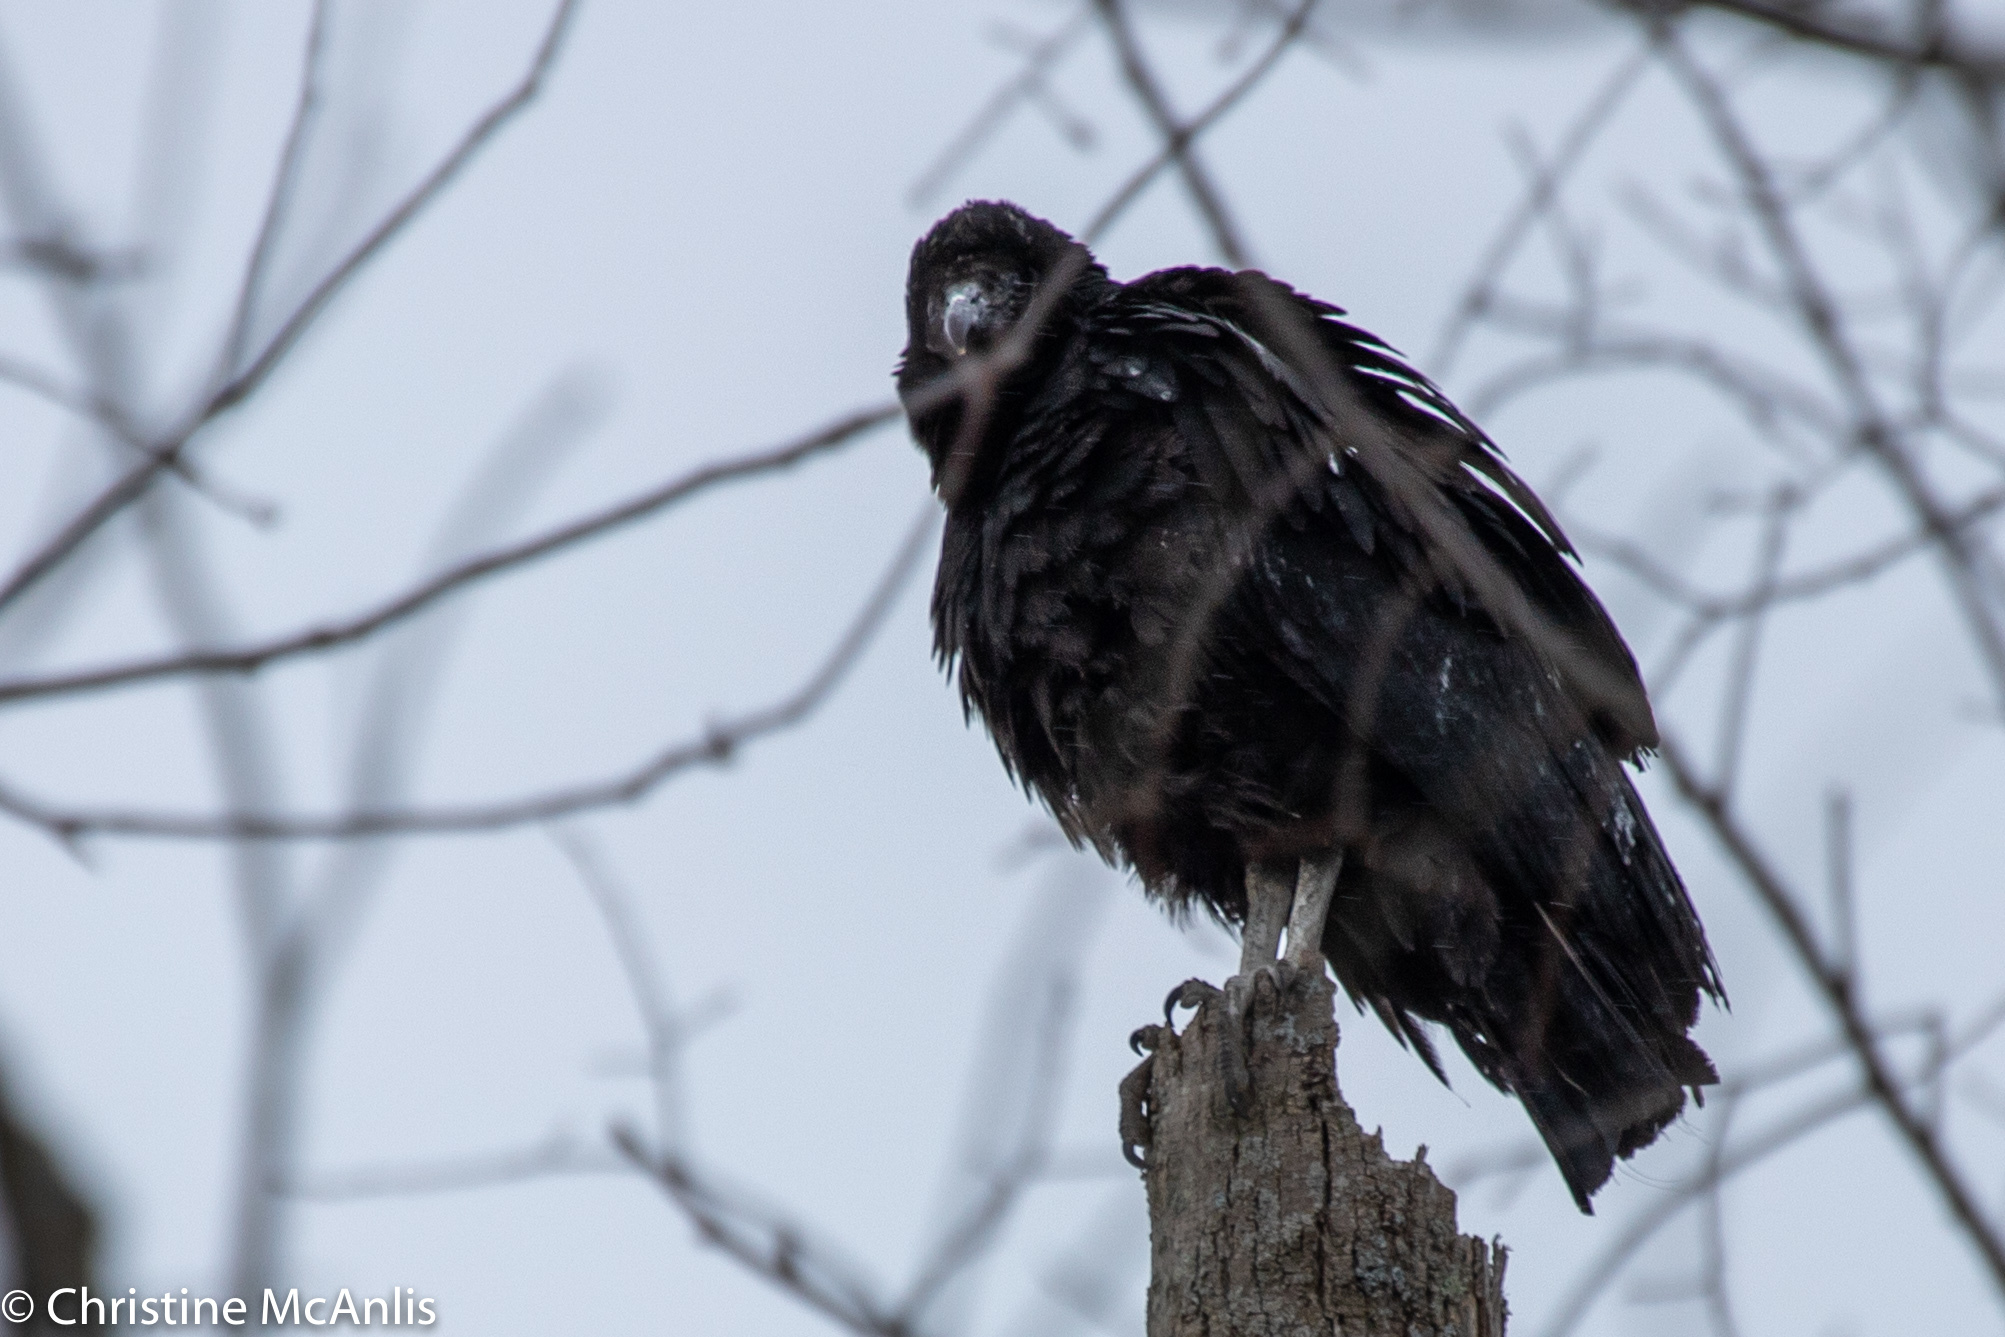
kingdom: Animalia
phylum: Chordata
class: Aves
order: Accipitriformes
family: Cathartidae
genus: Coragyps
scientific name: Coragyps atratus
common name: Black vulture
